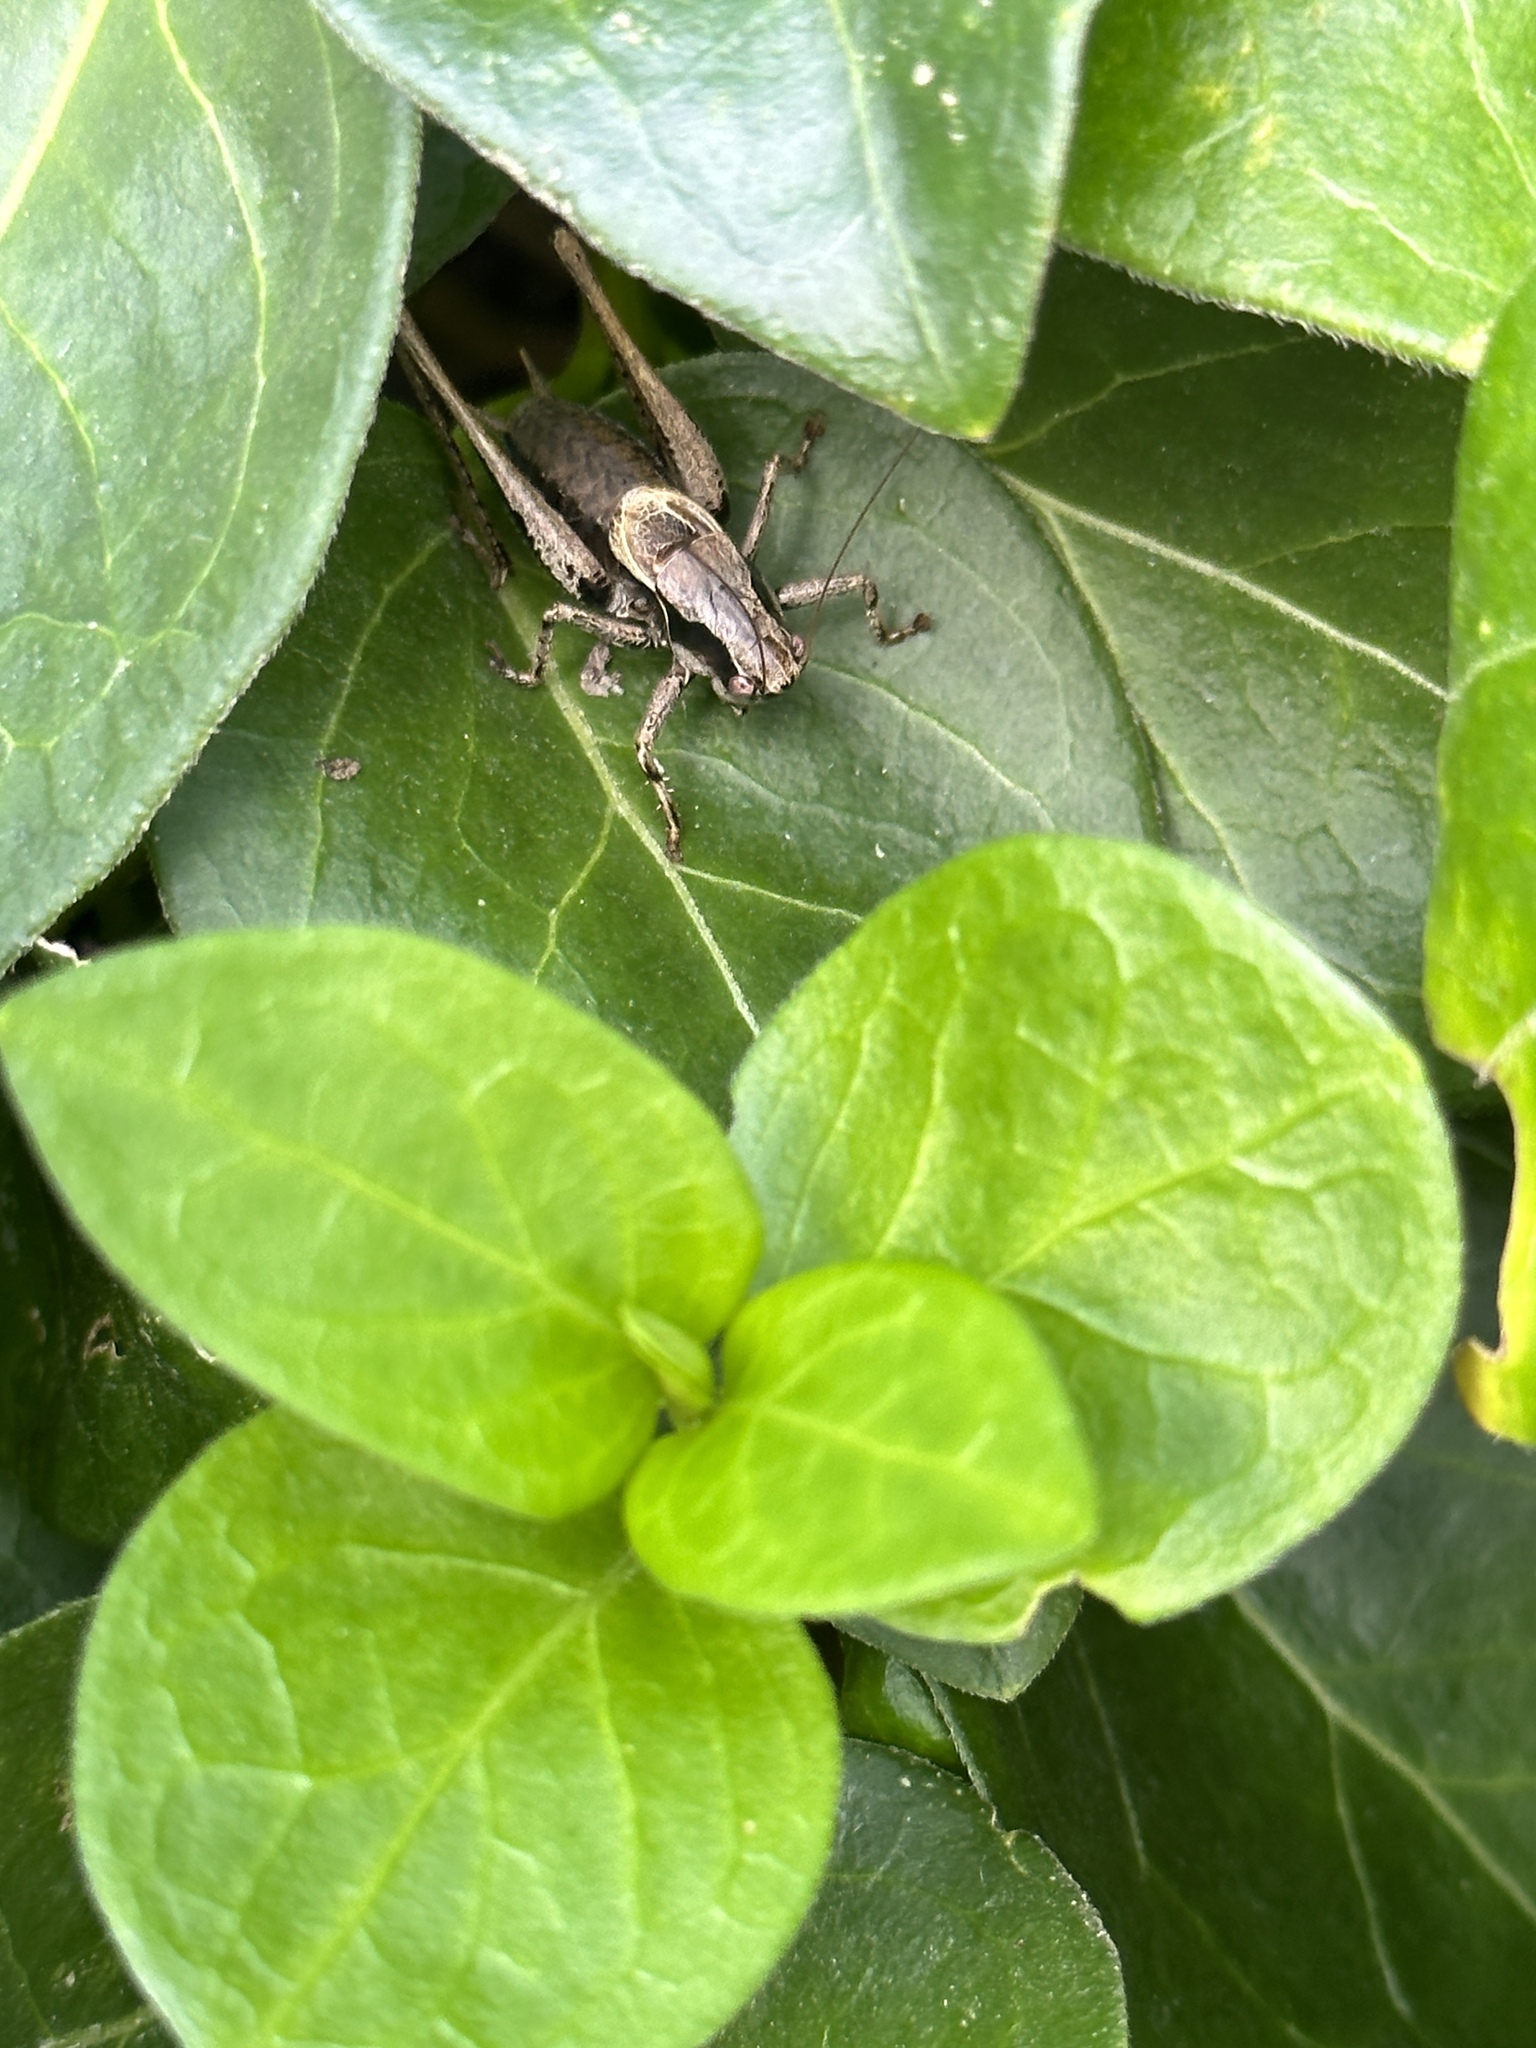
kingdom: Animalia
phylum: Arthropoda
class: Insecta
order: Orthoptera
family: Tettigoniidae
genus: Pholidoptera
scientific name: Pholidoptera griseoaptera
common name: Dark bush-cricket
